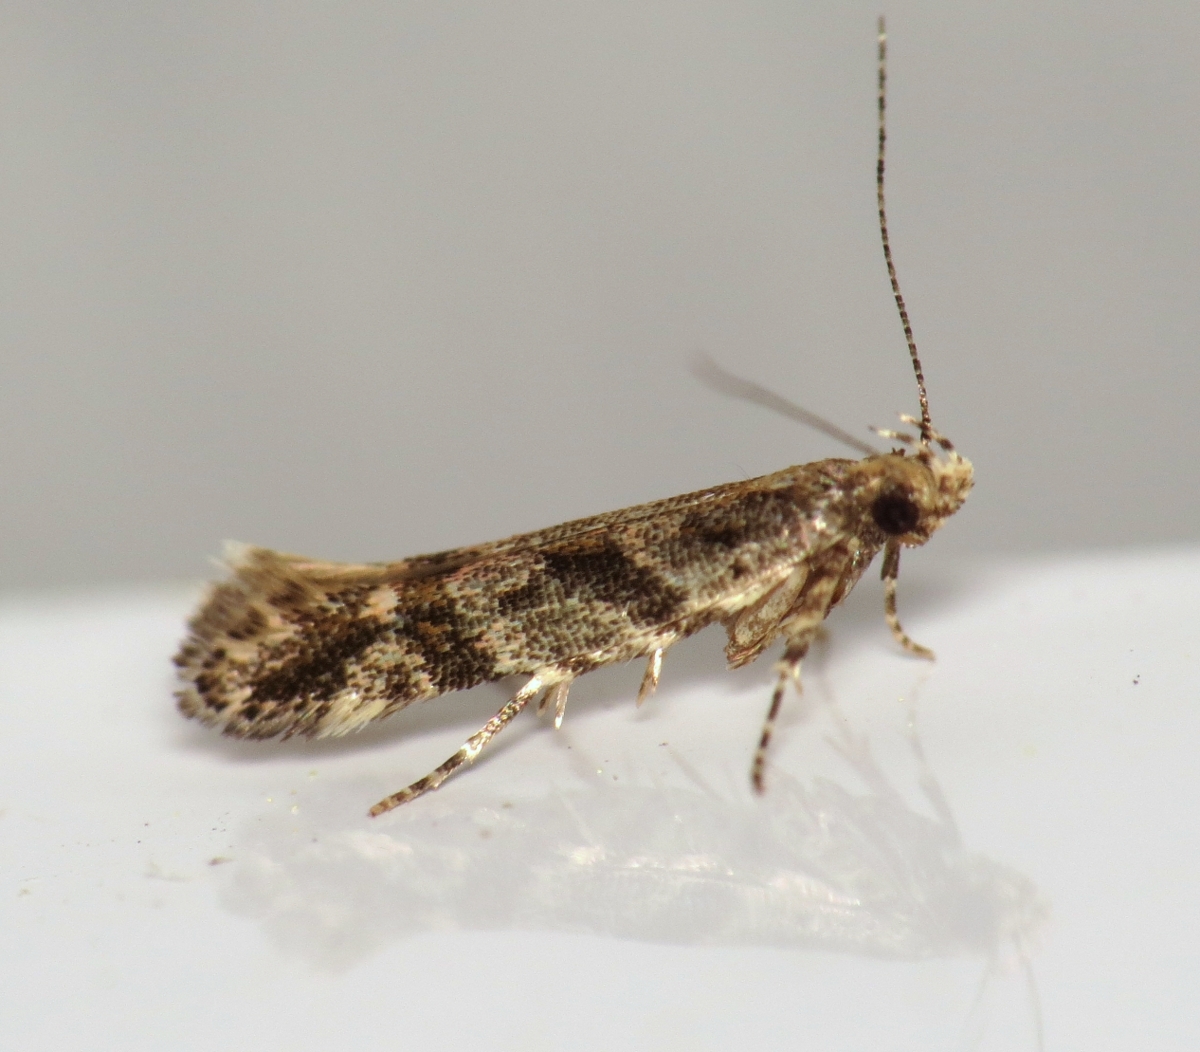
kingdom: Animalia
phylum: Arthropoda
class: Insecta
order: Lepidoptera
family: Gelechiidae
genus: Aristotelia
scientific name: Aristotelia rubidella
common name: Ruby aristotelia moth
